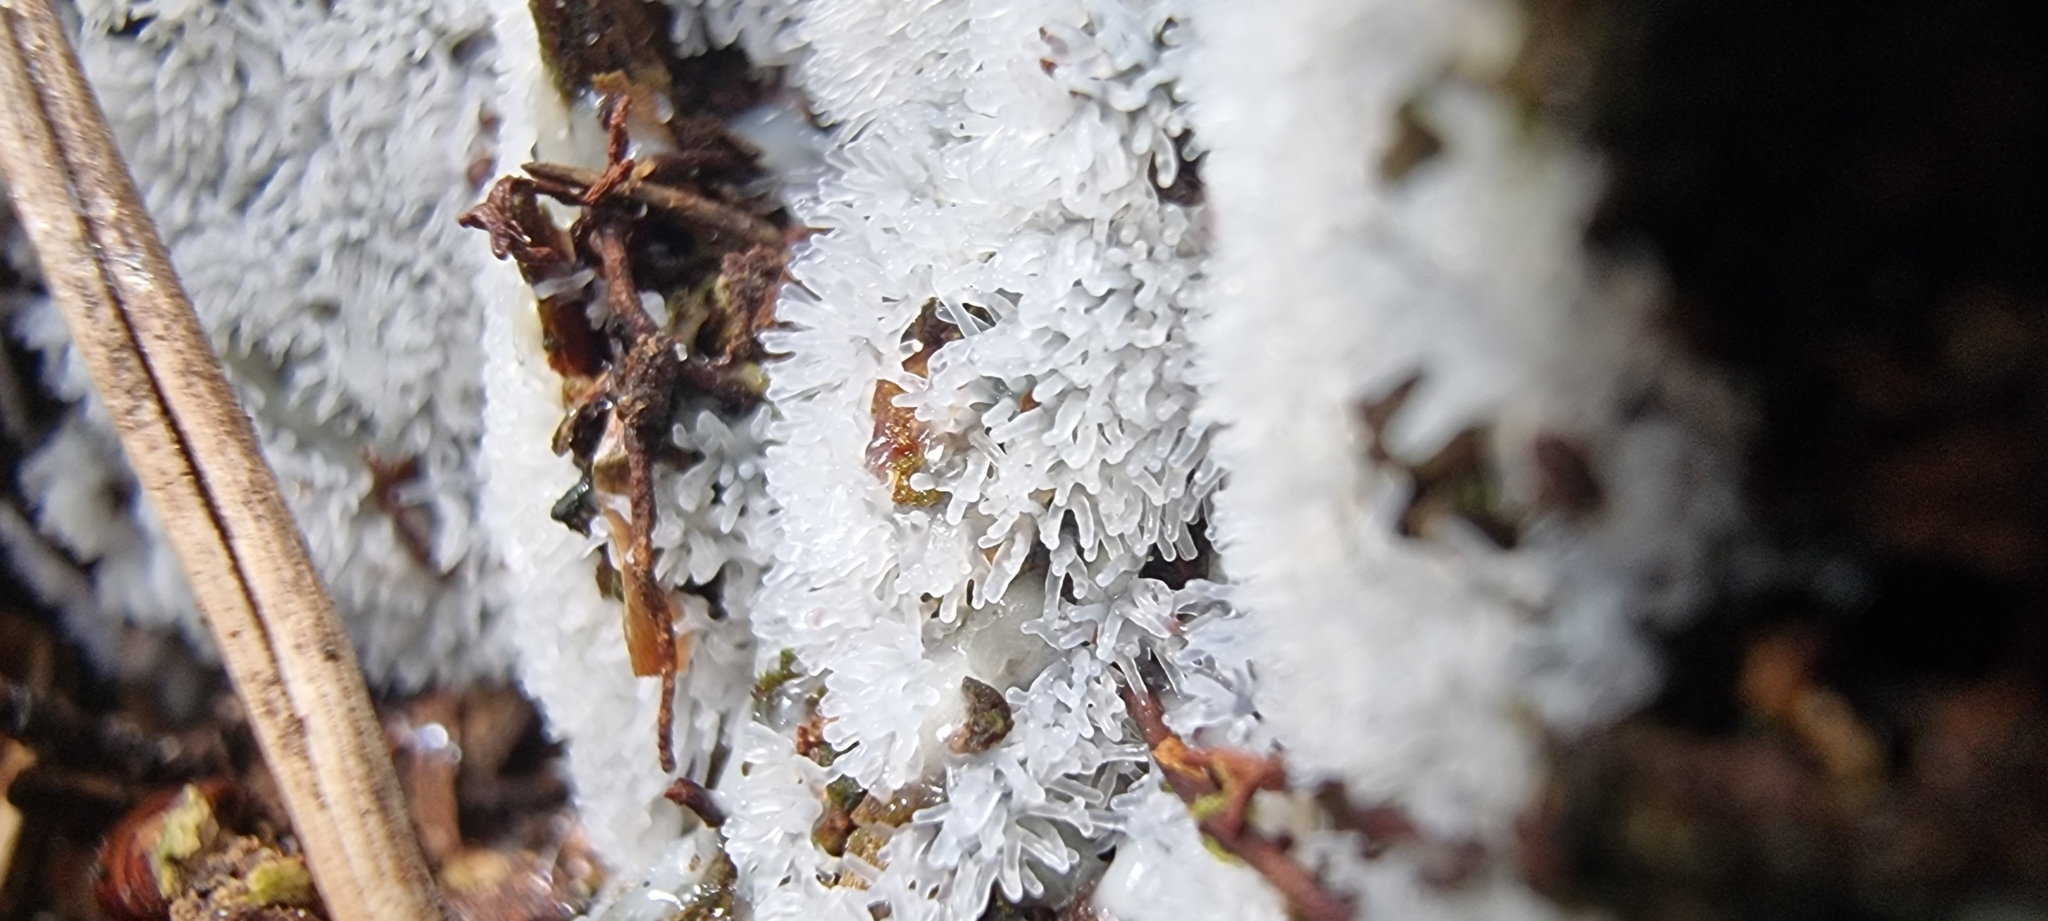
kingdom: Protozoa
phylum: Mycetozoa
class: Protosteliomycetes
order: Ceratiomyxales
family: Ceratiomyxaceae
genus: Ceratiomyxa
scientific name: Ceratiomyxa fruticulosa
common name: Honeycomb coral slime mold
